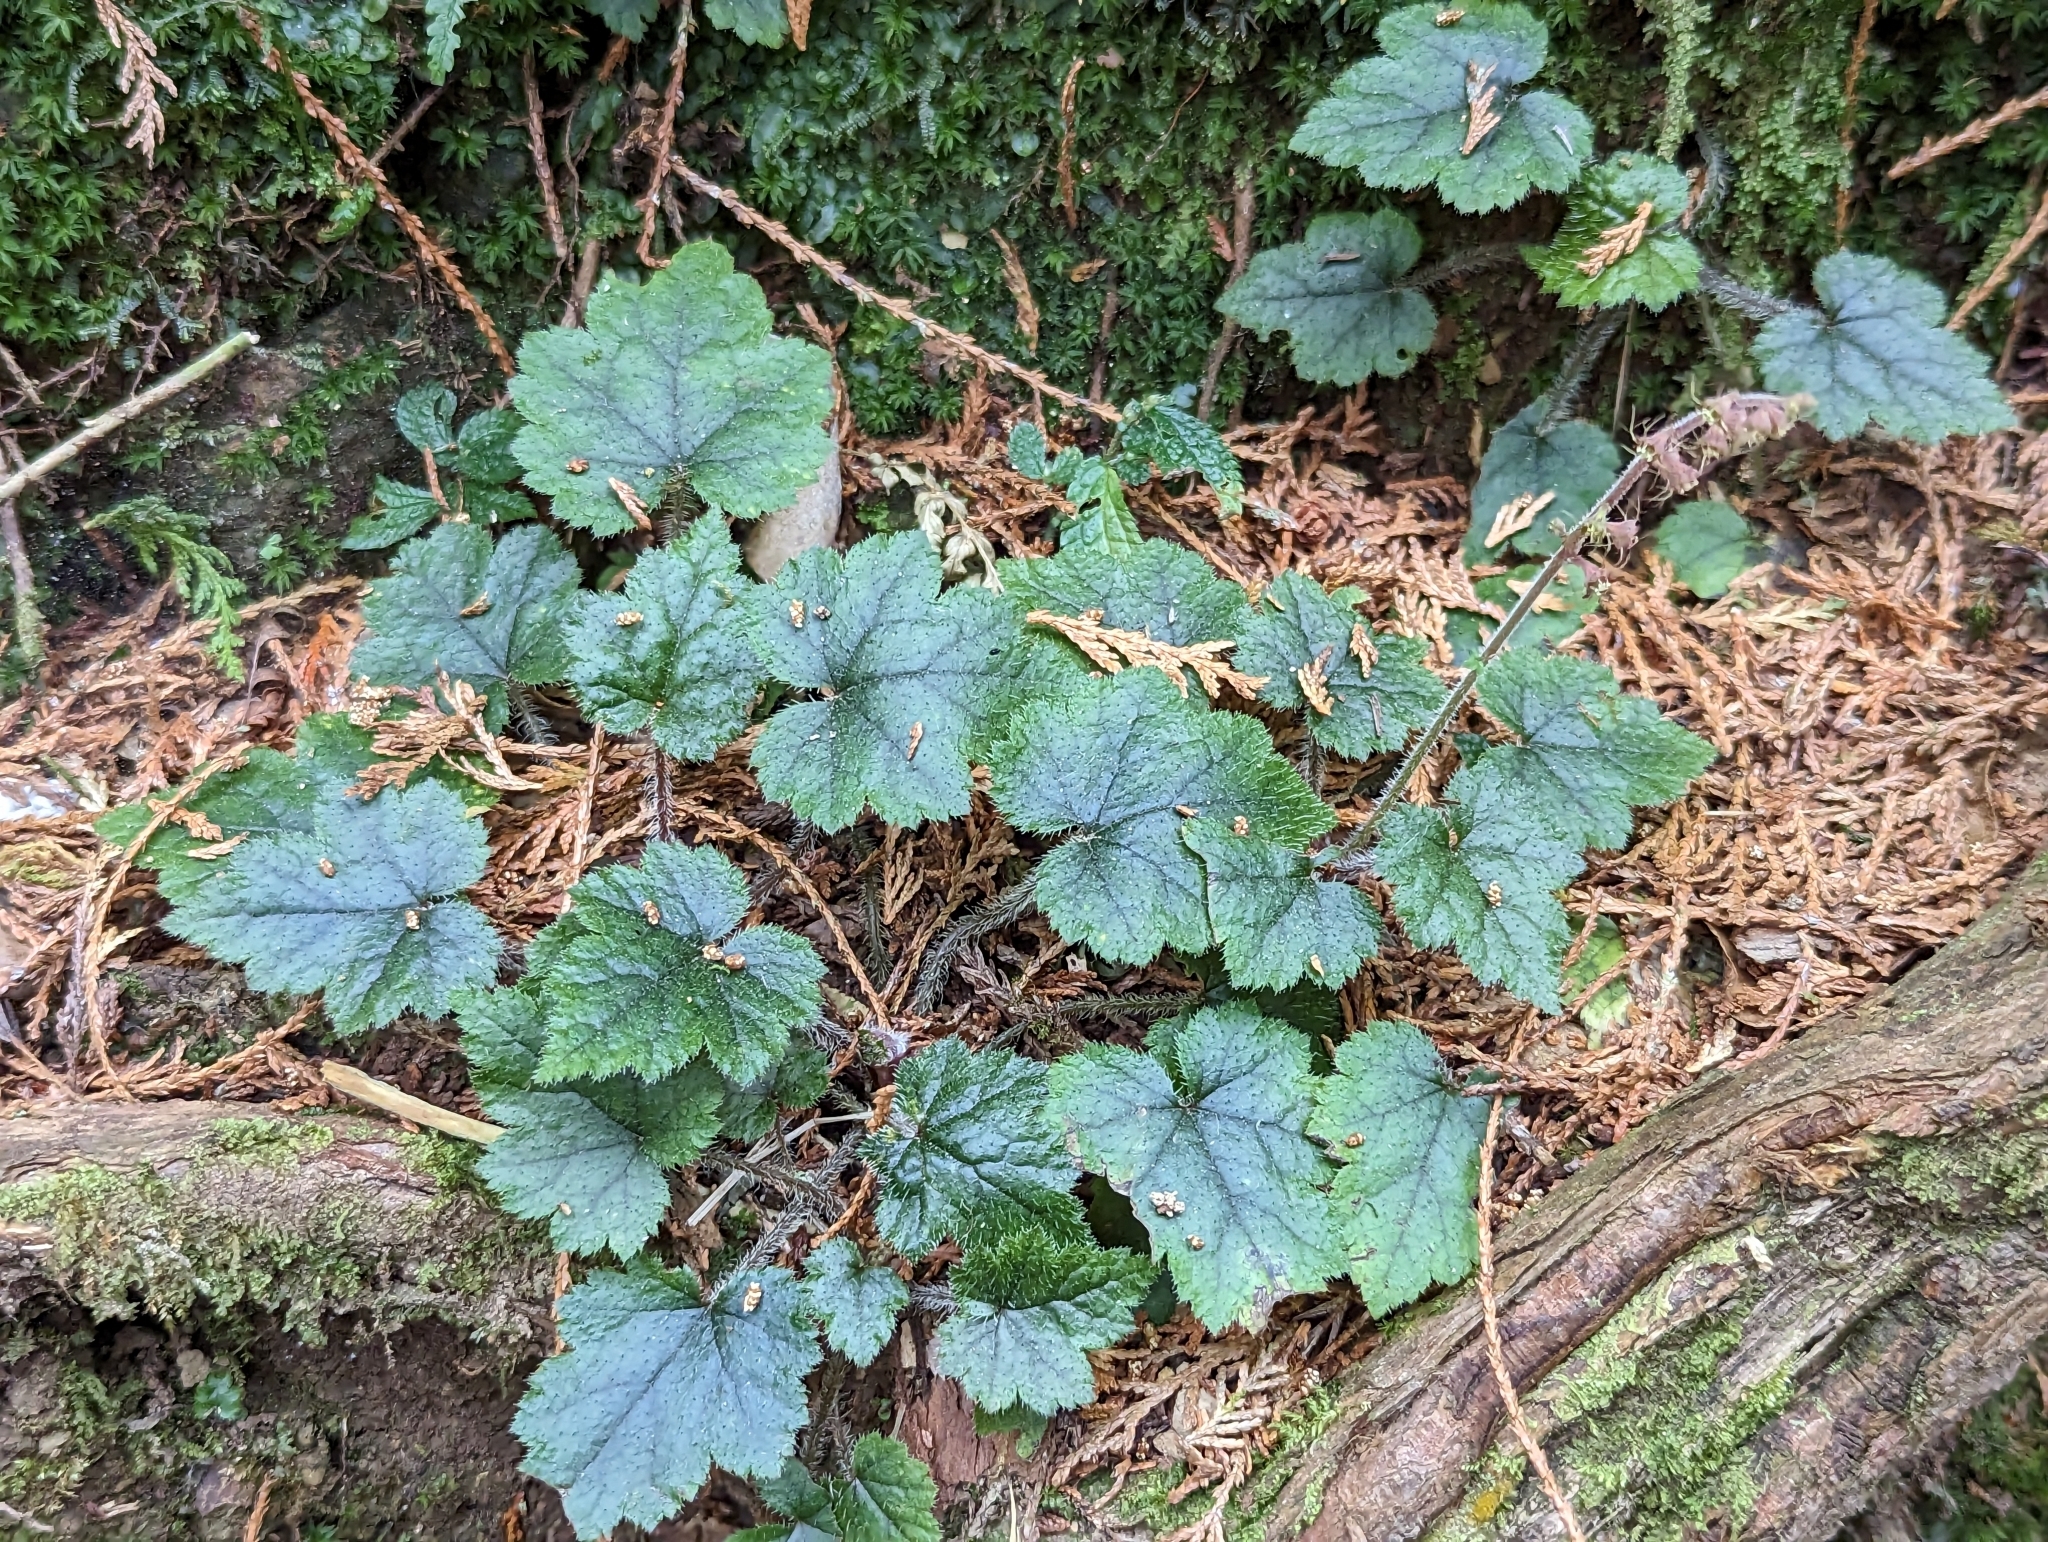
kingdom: Plantae
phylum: Tracheophyta
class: Magnoliopsida
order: Saxifragales
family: Saxifragaceae
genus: Asimitellaria
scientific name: Asimitellaria formosana
